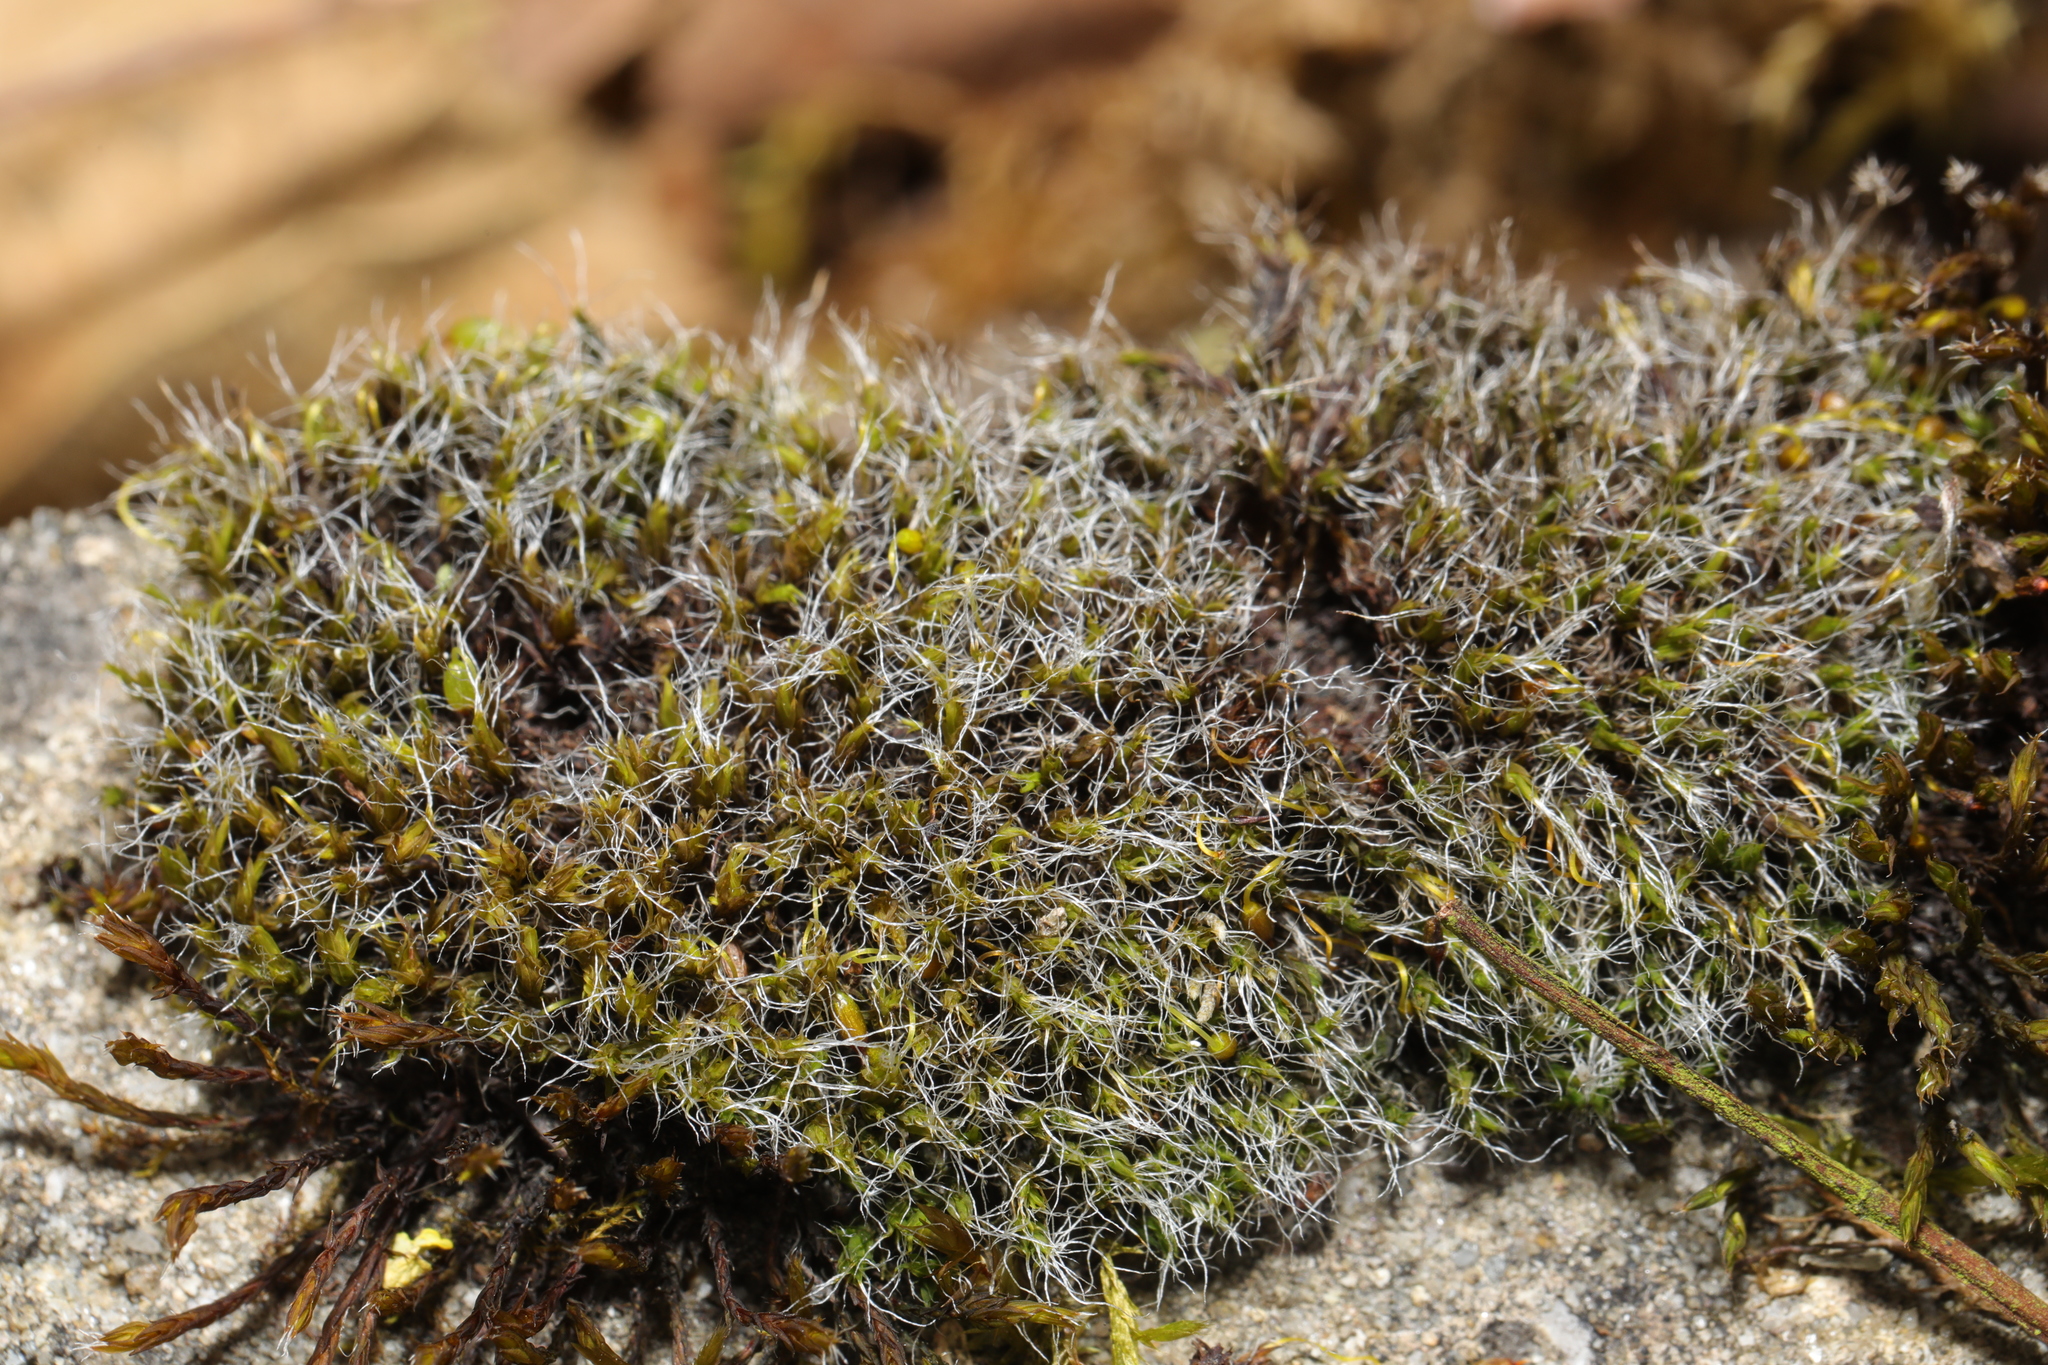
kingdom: Plantae
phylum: Bryophyta
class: Bryopsida
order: Grimmiales
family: Grimmiaceae
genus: Grimmia
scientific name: Grimmia pulvinata
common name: Grey-cushioned grimmia
